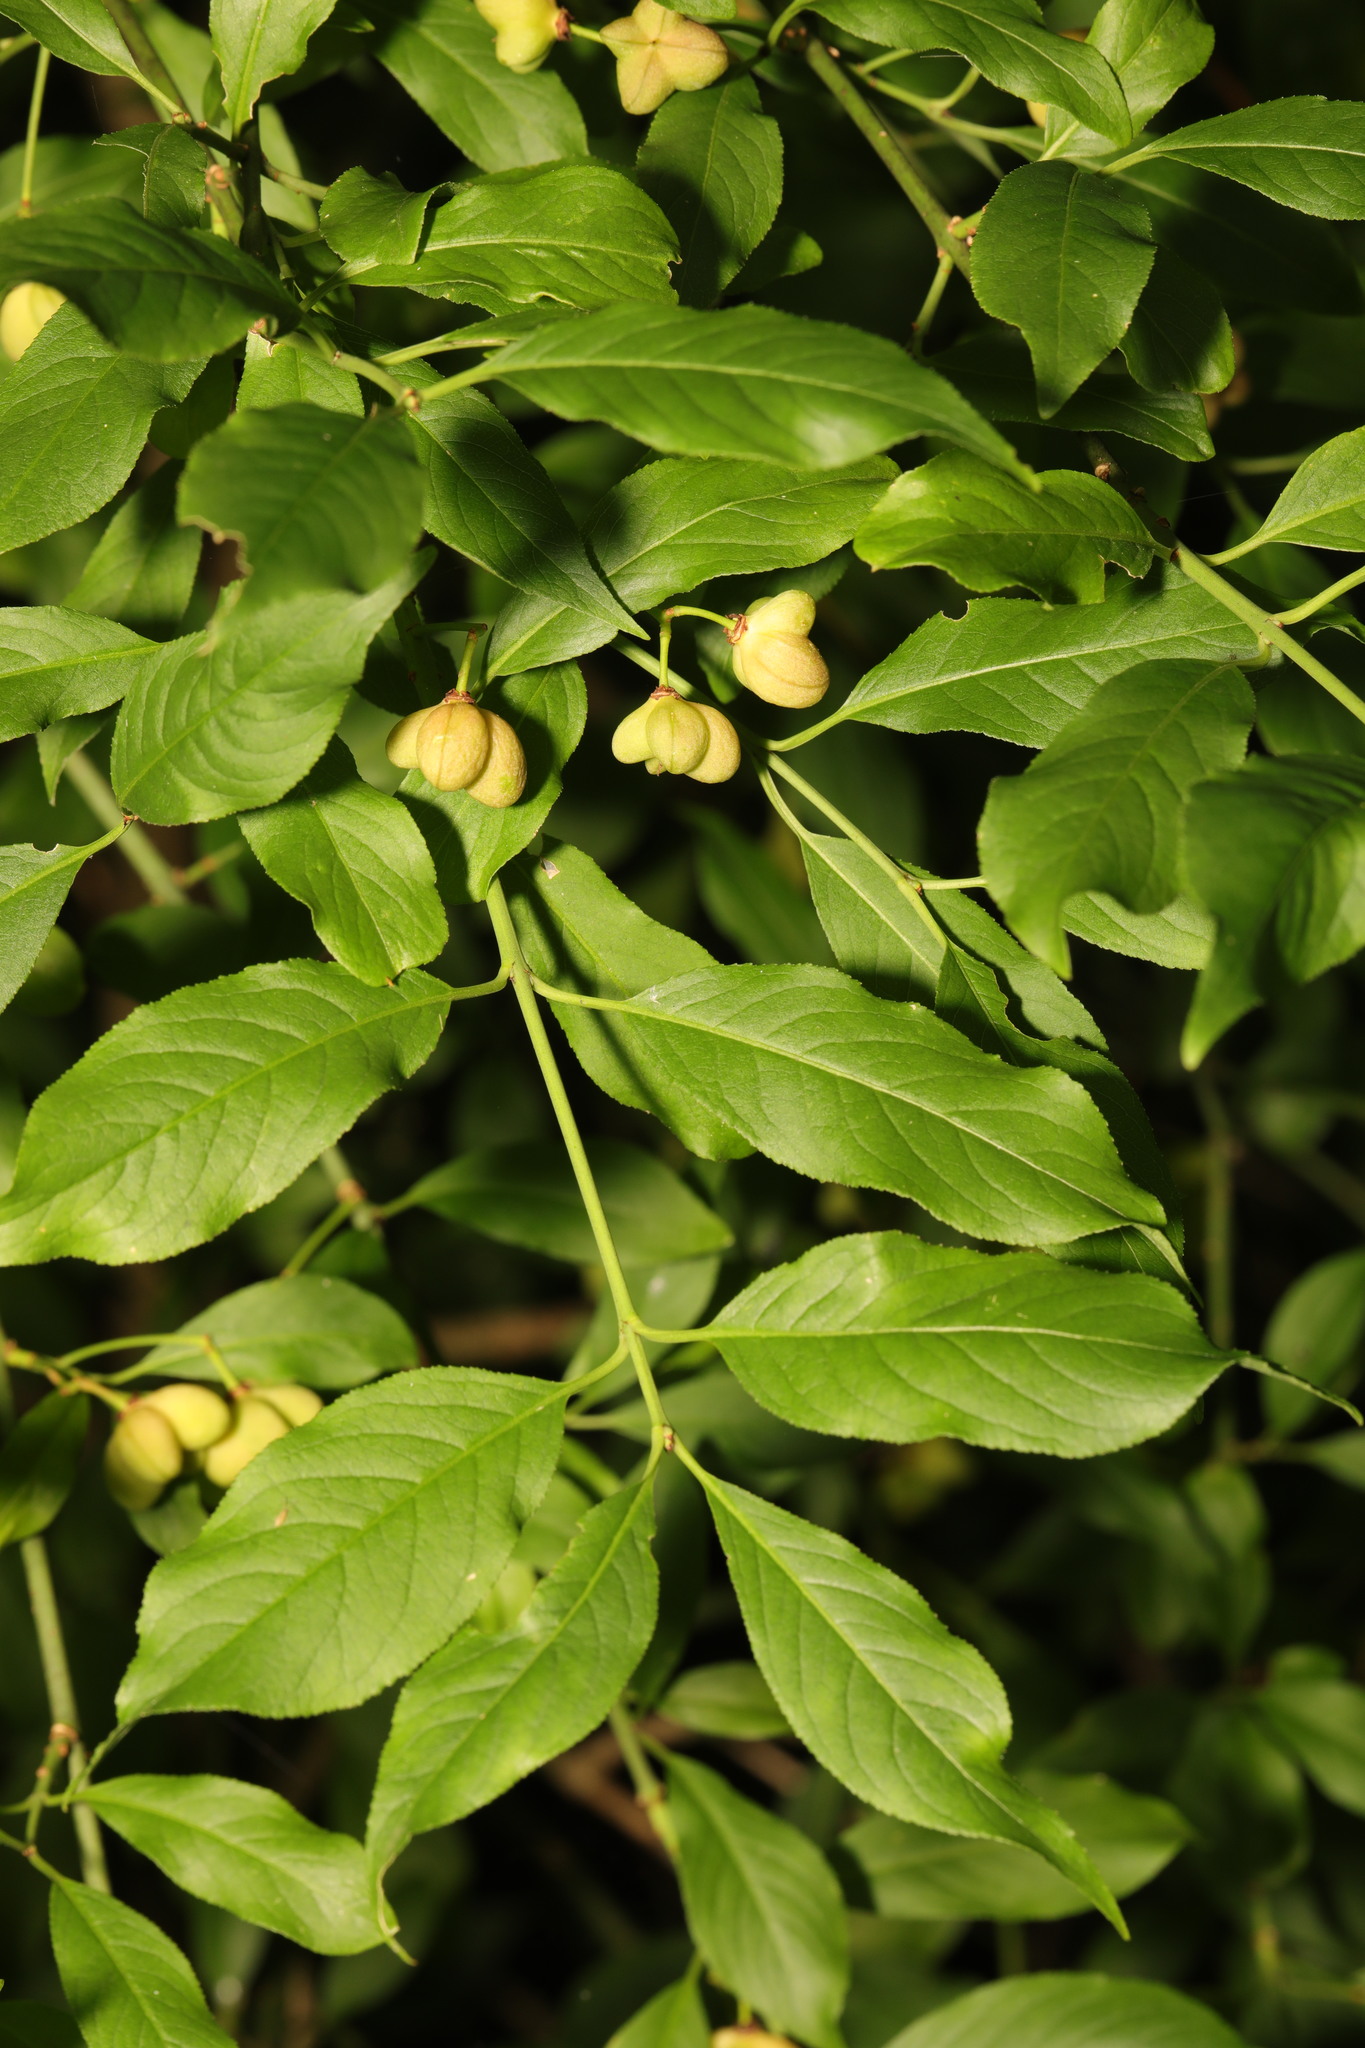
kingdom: Plantae
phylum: Tracheophyta
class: Magnoliopsida
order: Celastrales
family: Celastraceae
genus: Euonymus
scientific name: Euonymus europaeus
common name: Spindle
